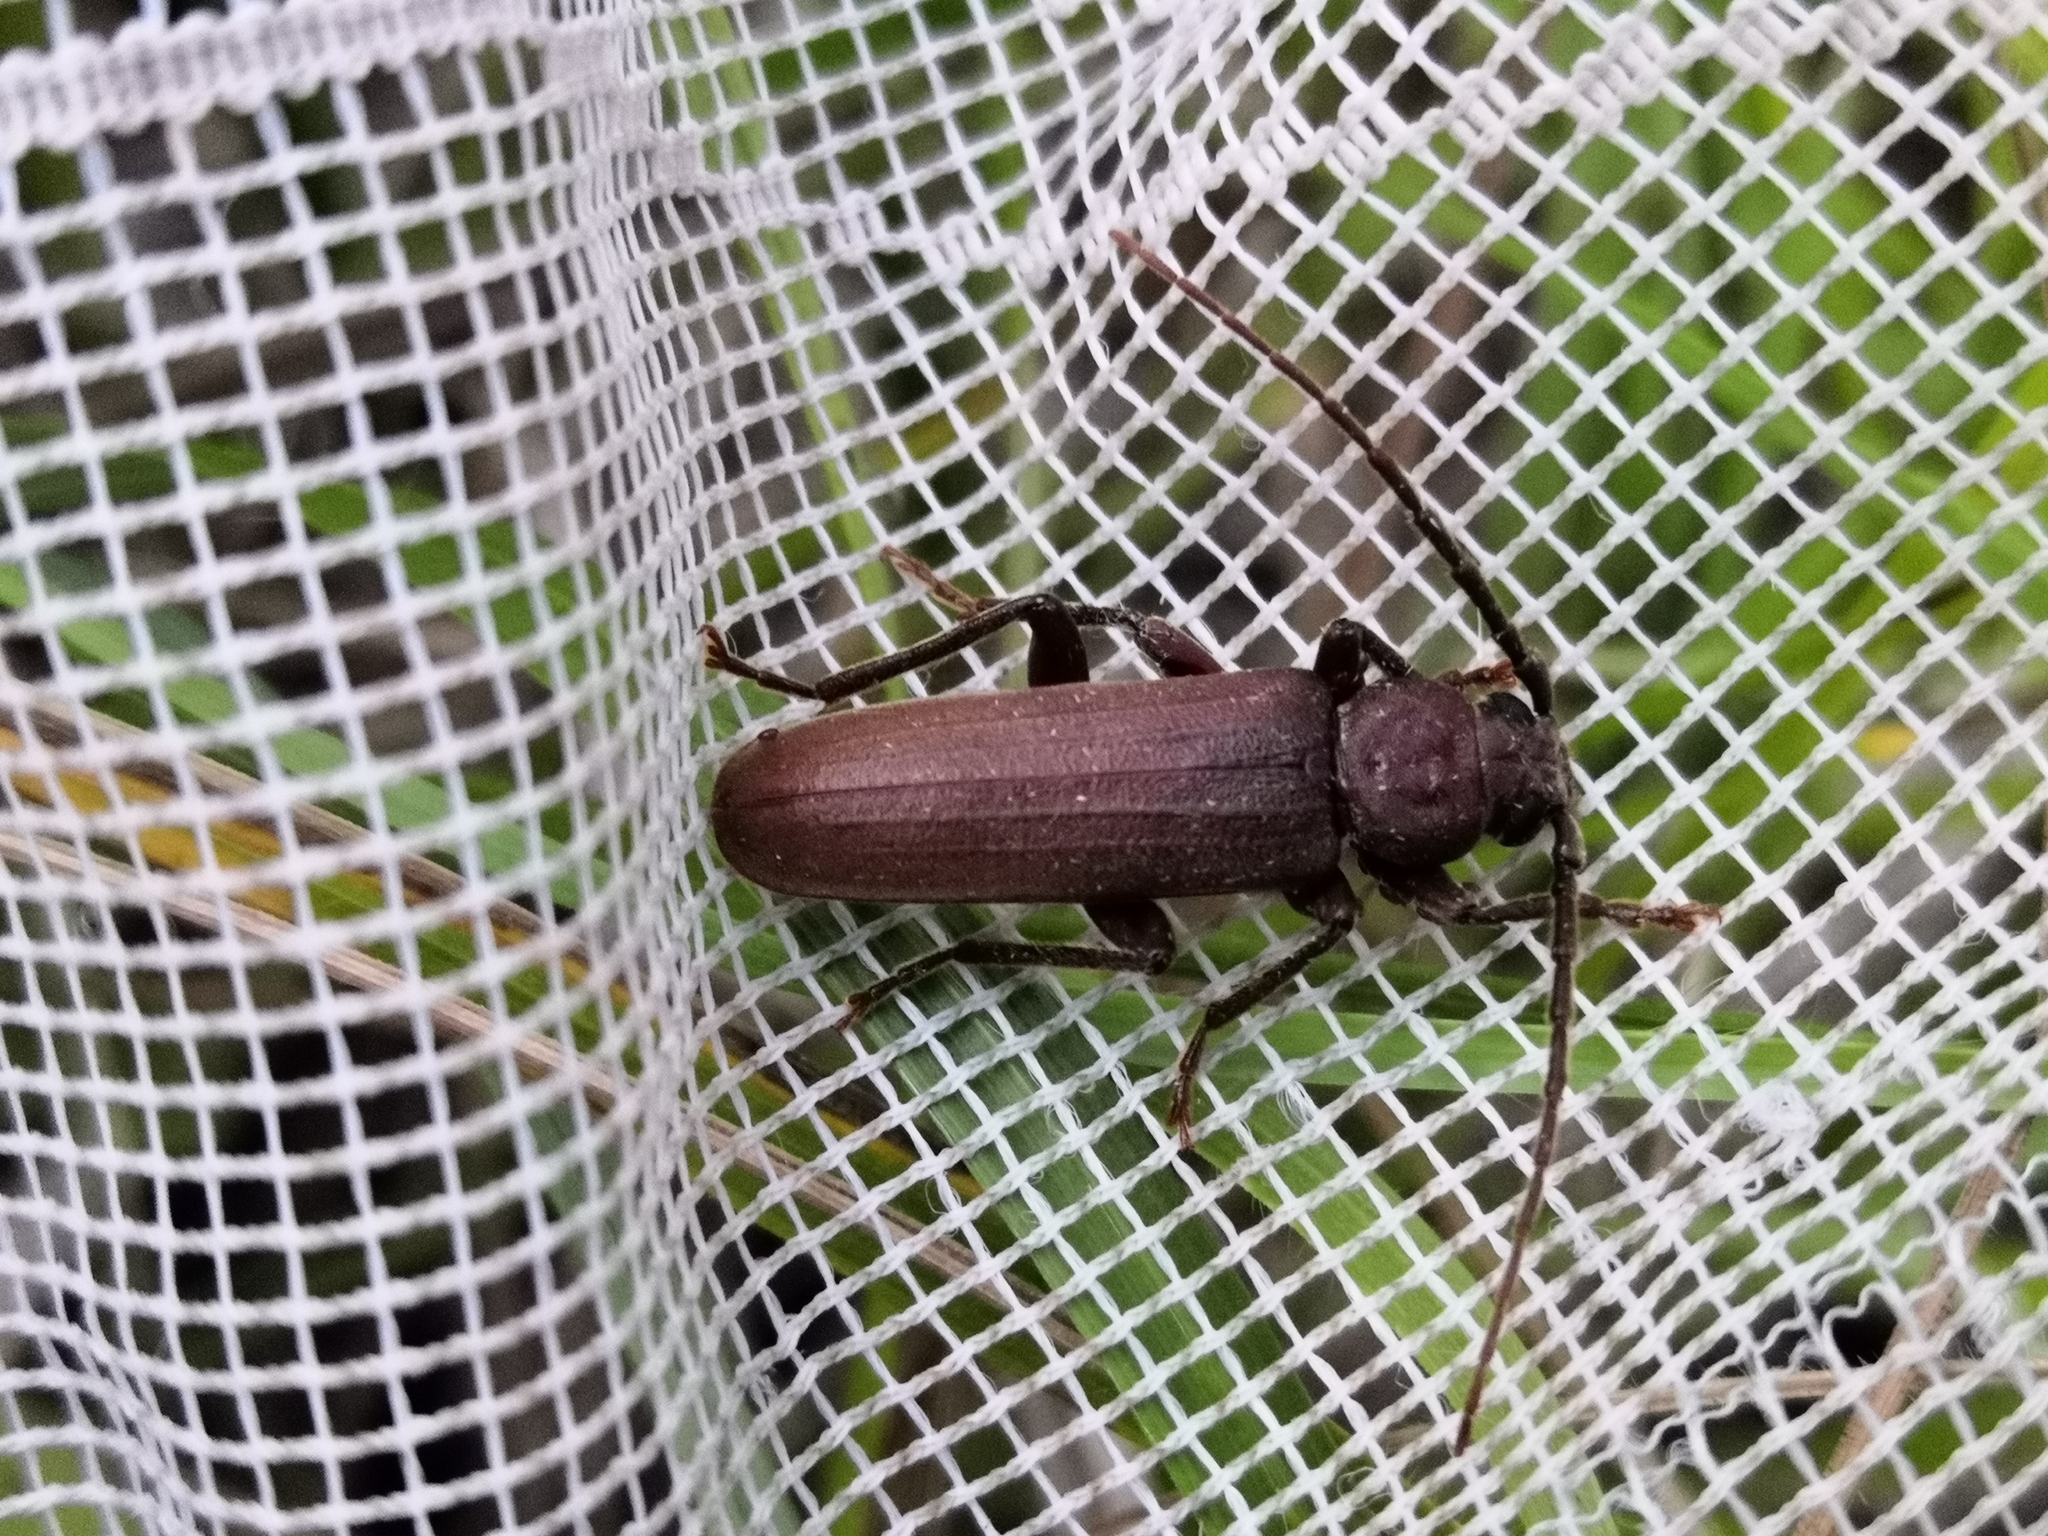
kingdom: Animalia
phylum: Arthropoda
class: Insecta
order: Coleoptera
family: Cerambycidae
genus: Arhopalus
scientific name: Arhopalus rusticus
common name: Rust pine borer
